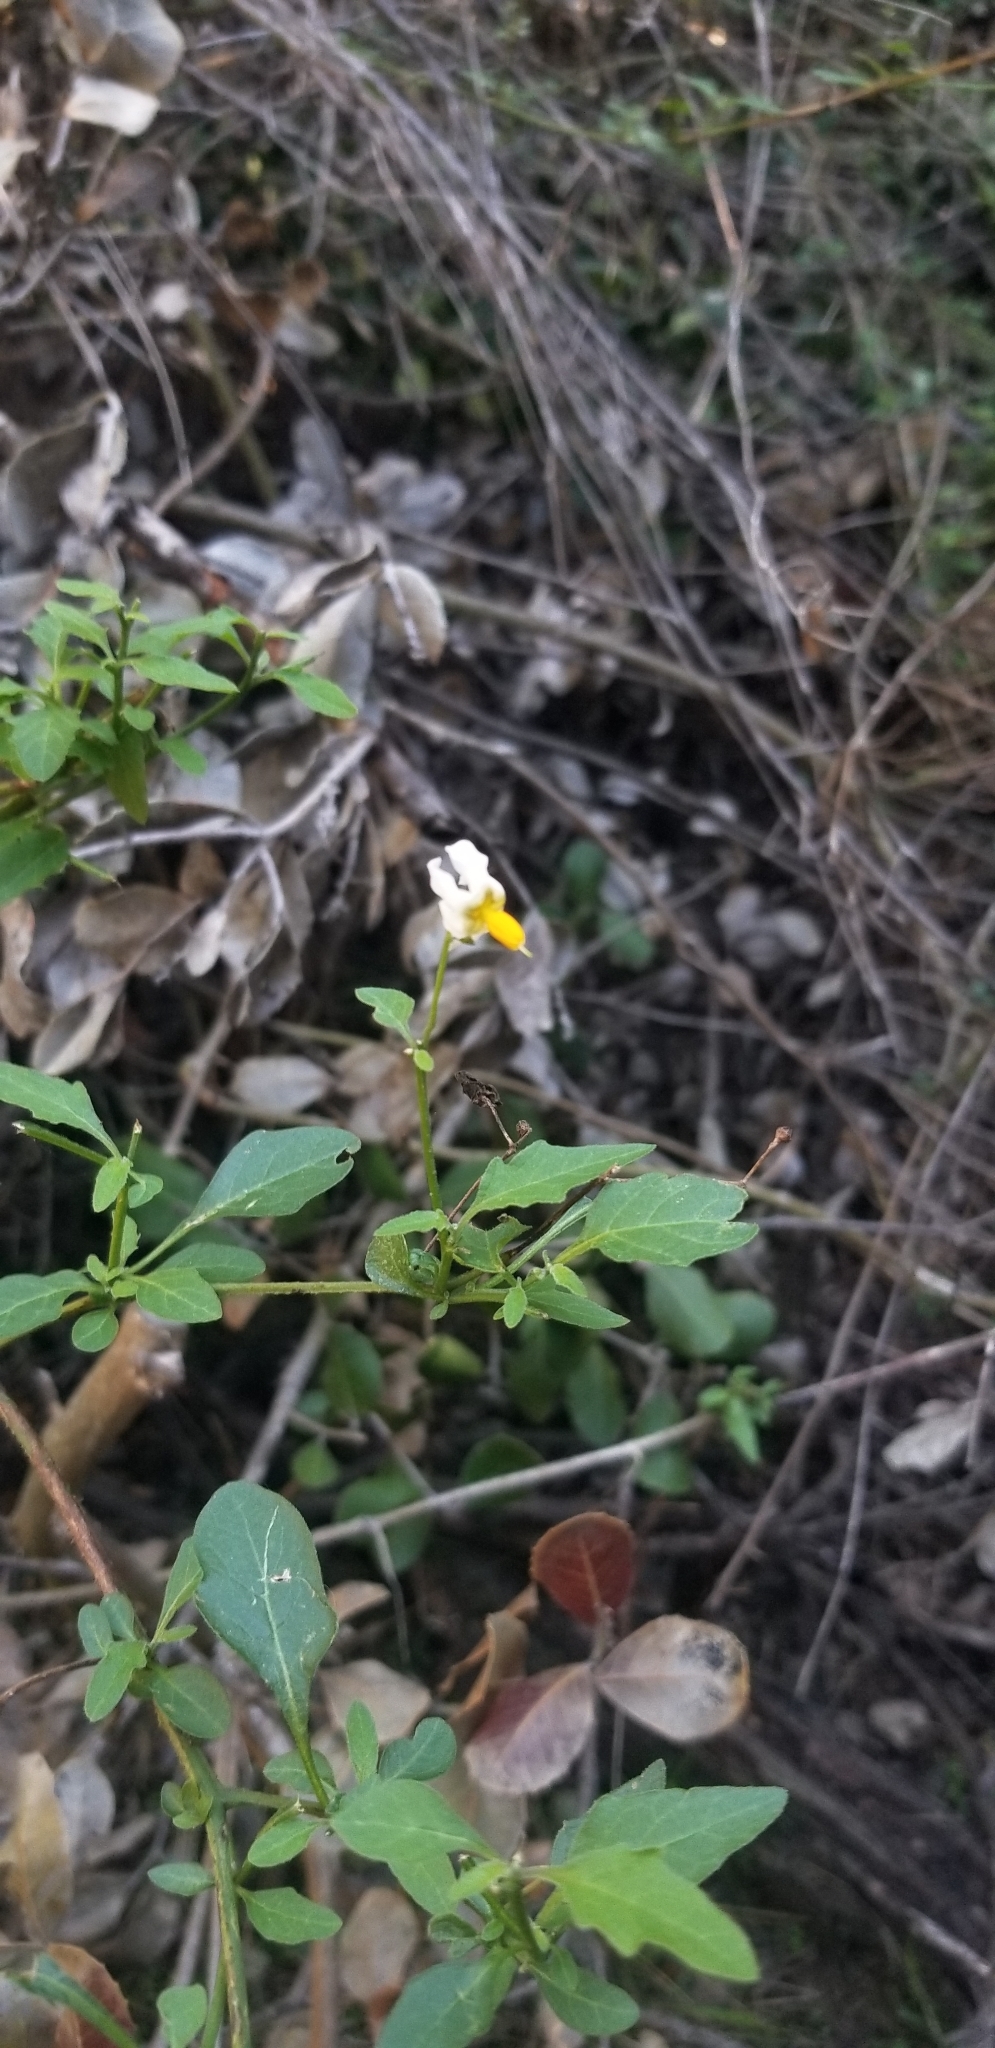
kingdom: Plantae
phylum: Tracheophyta
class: Magnoliopsida
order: Solanales
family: Solanaceae
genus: Solanum
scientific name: Solanum douglasii
